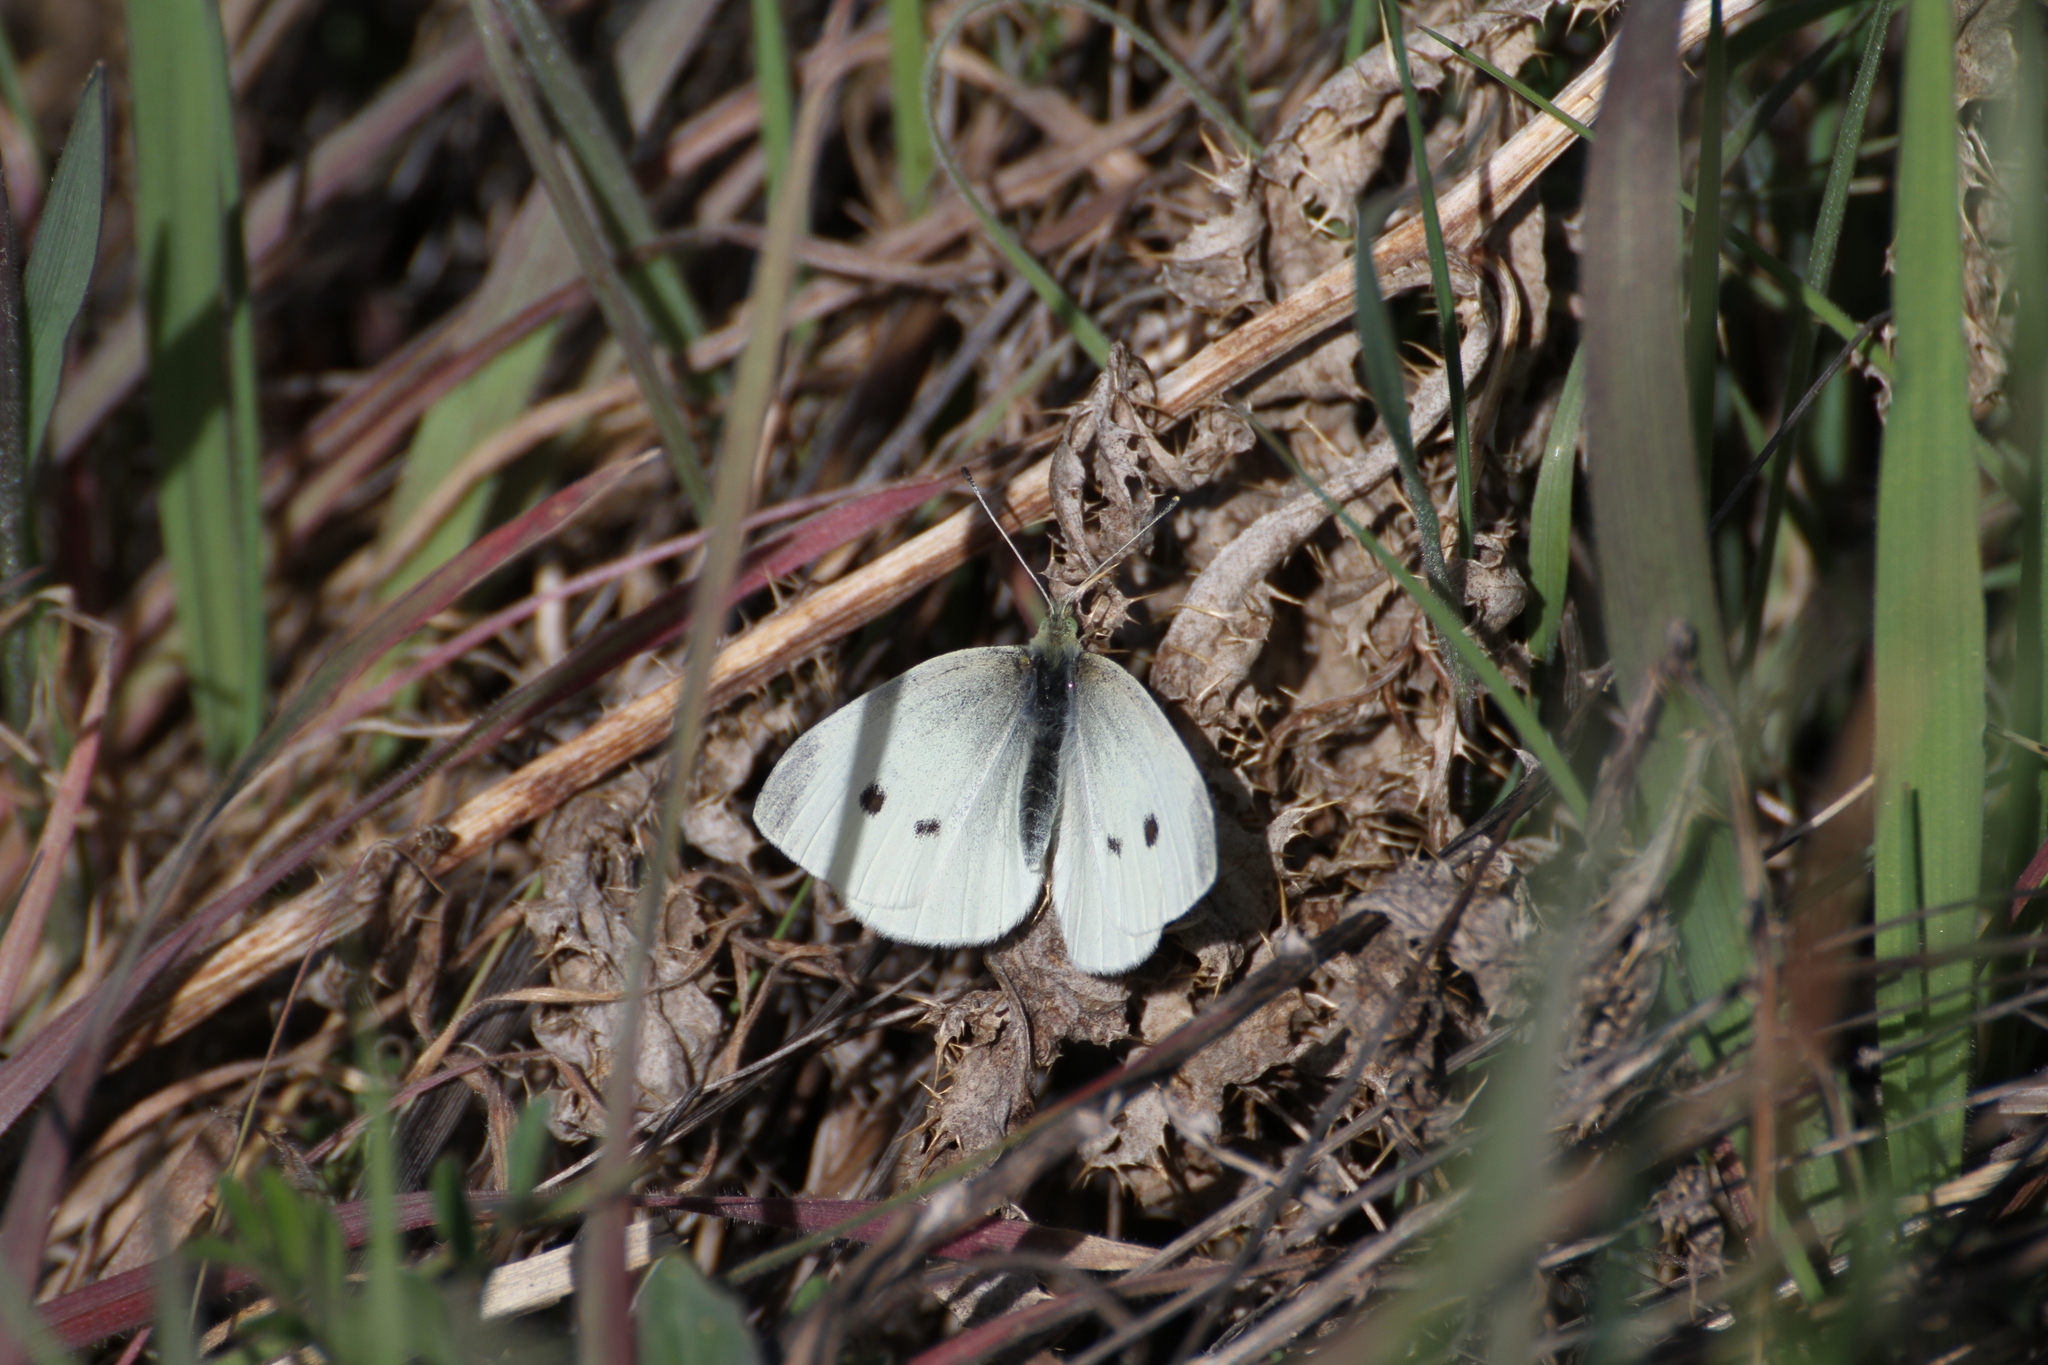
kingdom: Animalia
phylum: Arthropoda
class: Insecta
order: Lepidoptera
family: Pieridae
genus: Pieris
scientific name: Pieris rapae
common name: Small white
